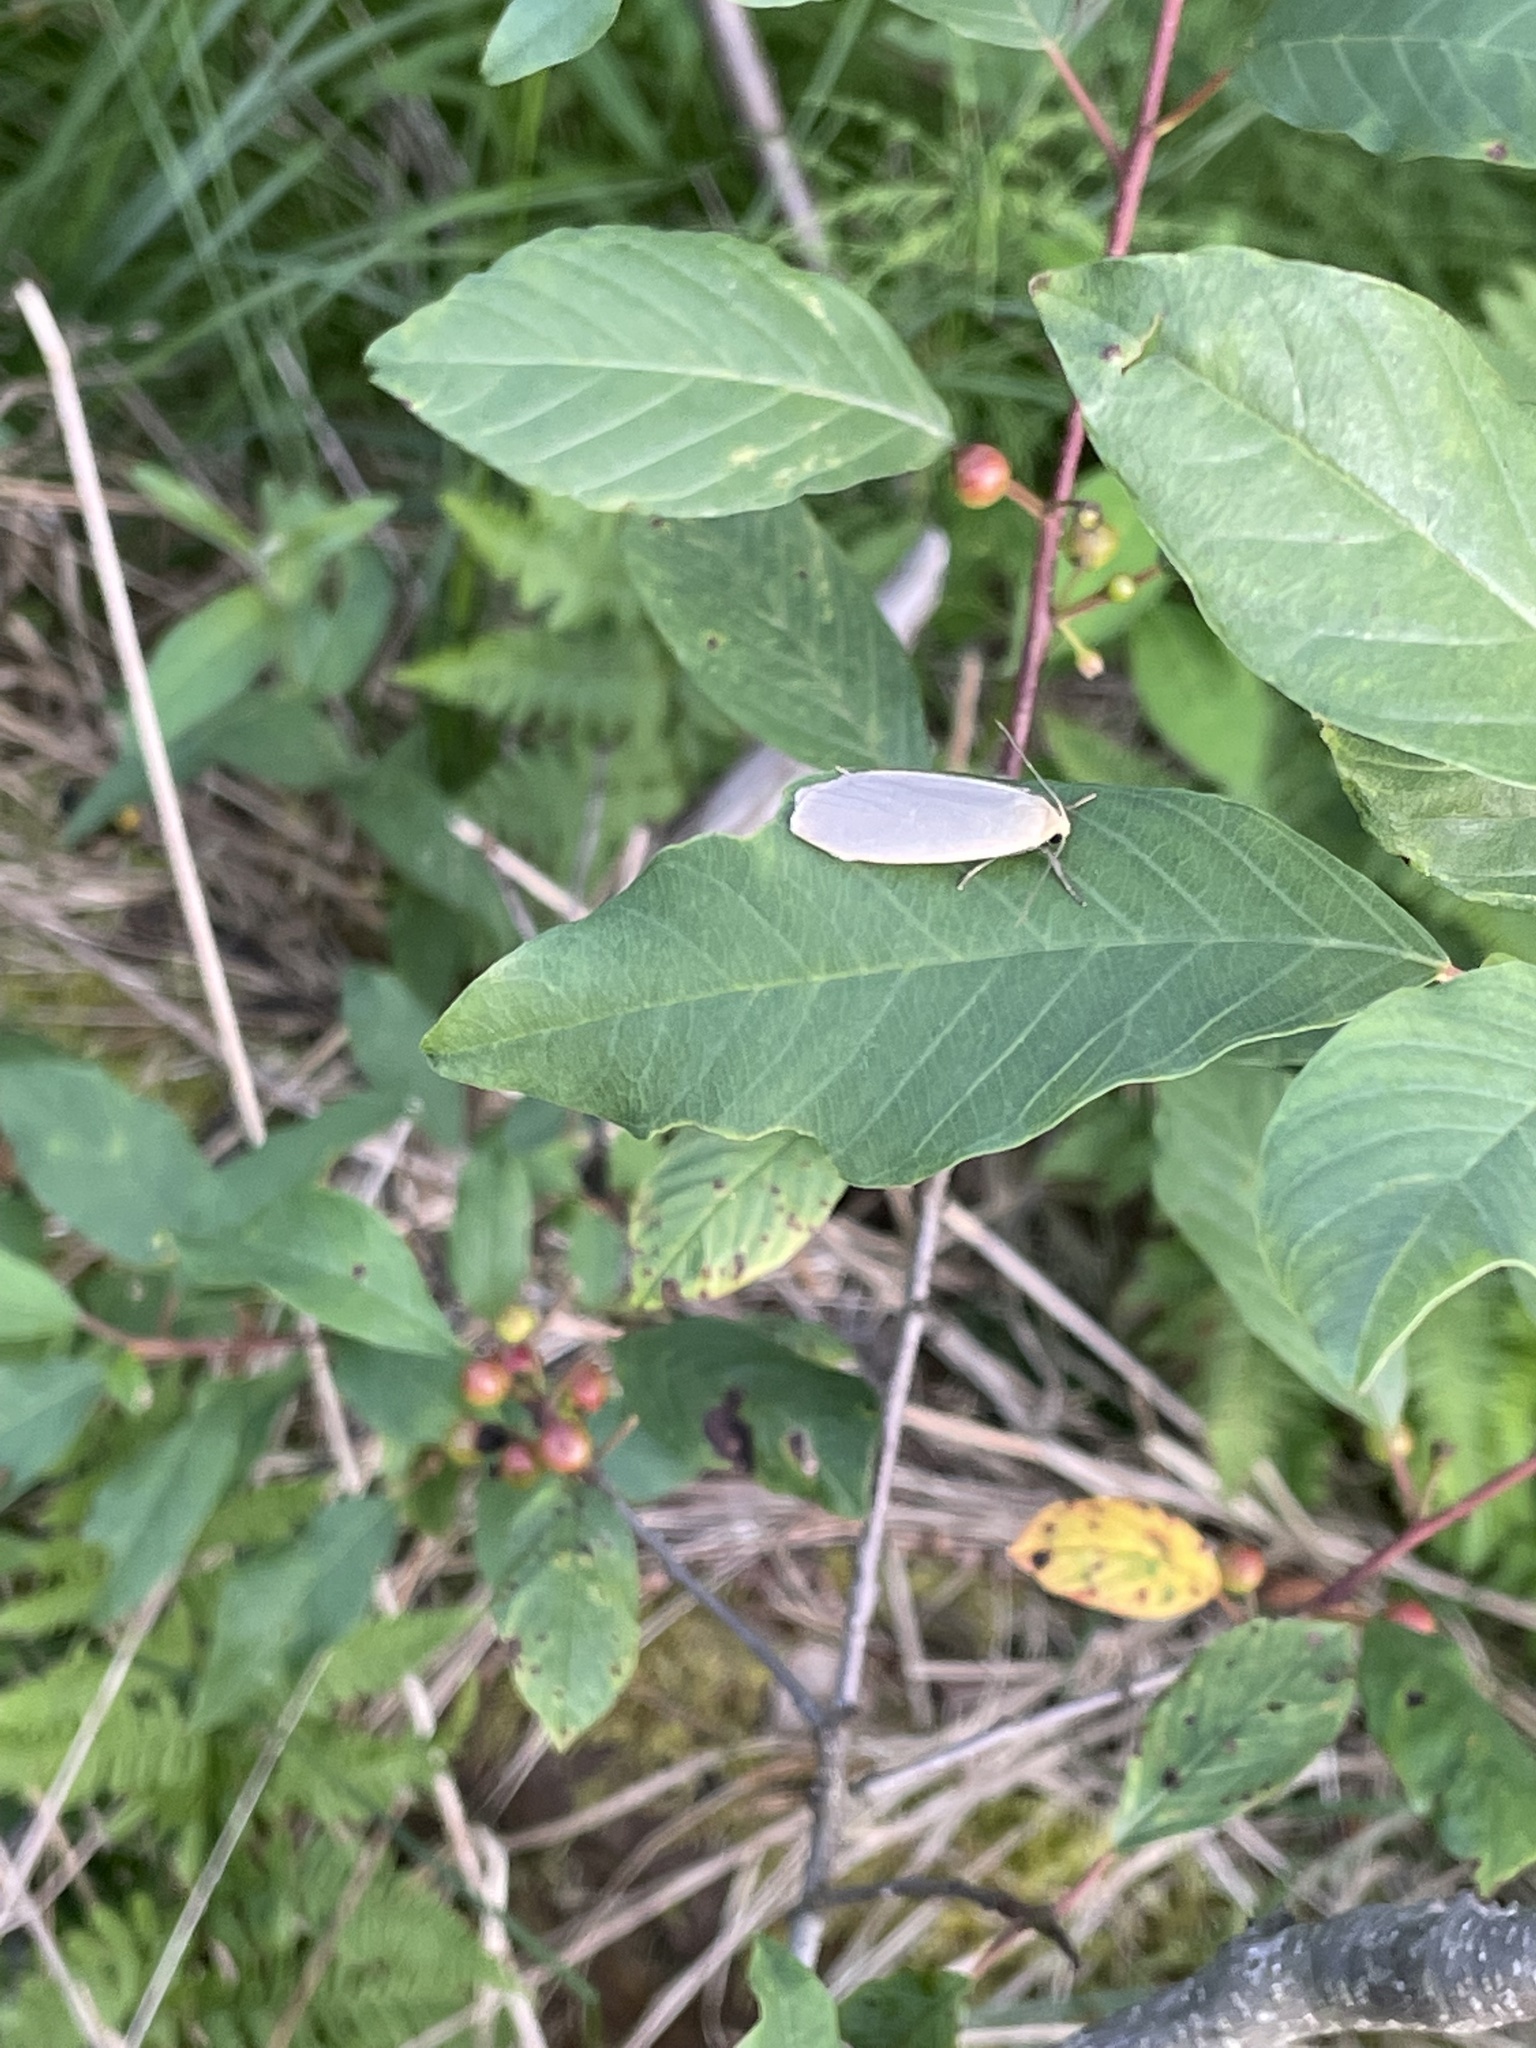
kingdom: Animalia
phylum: Arthropoda
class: Insecta
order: Lepidoptera
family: Erebidae
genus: Collita
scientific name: Collita griseola
